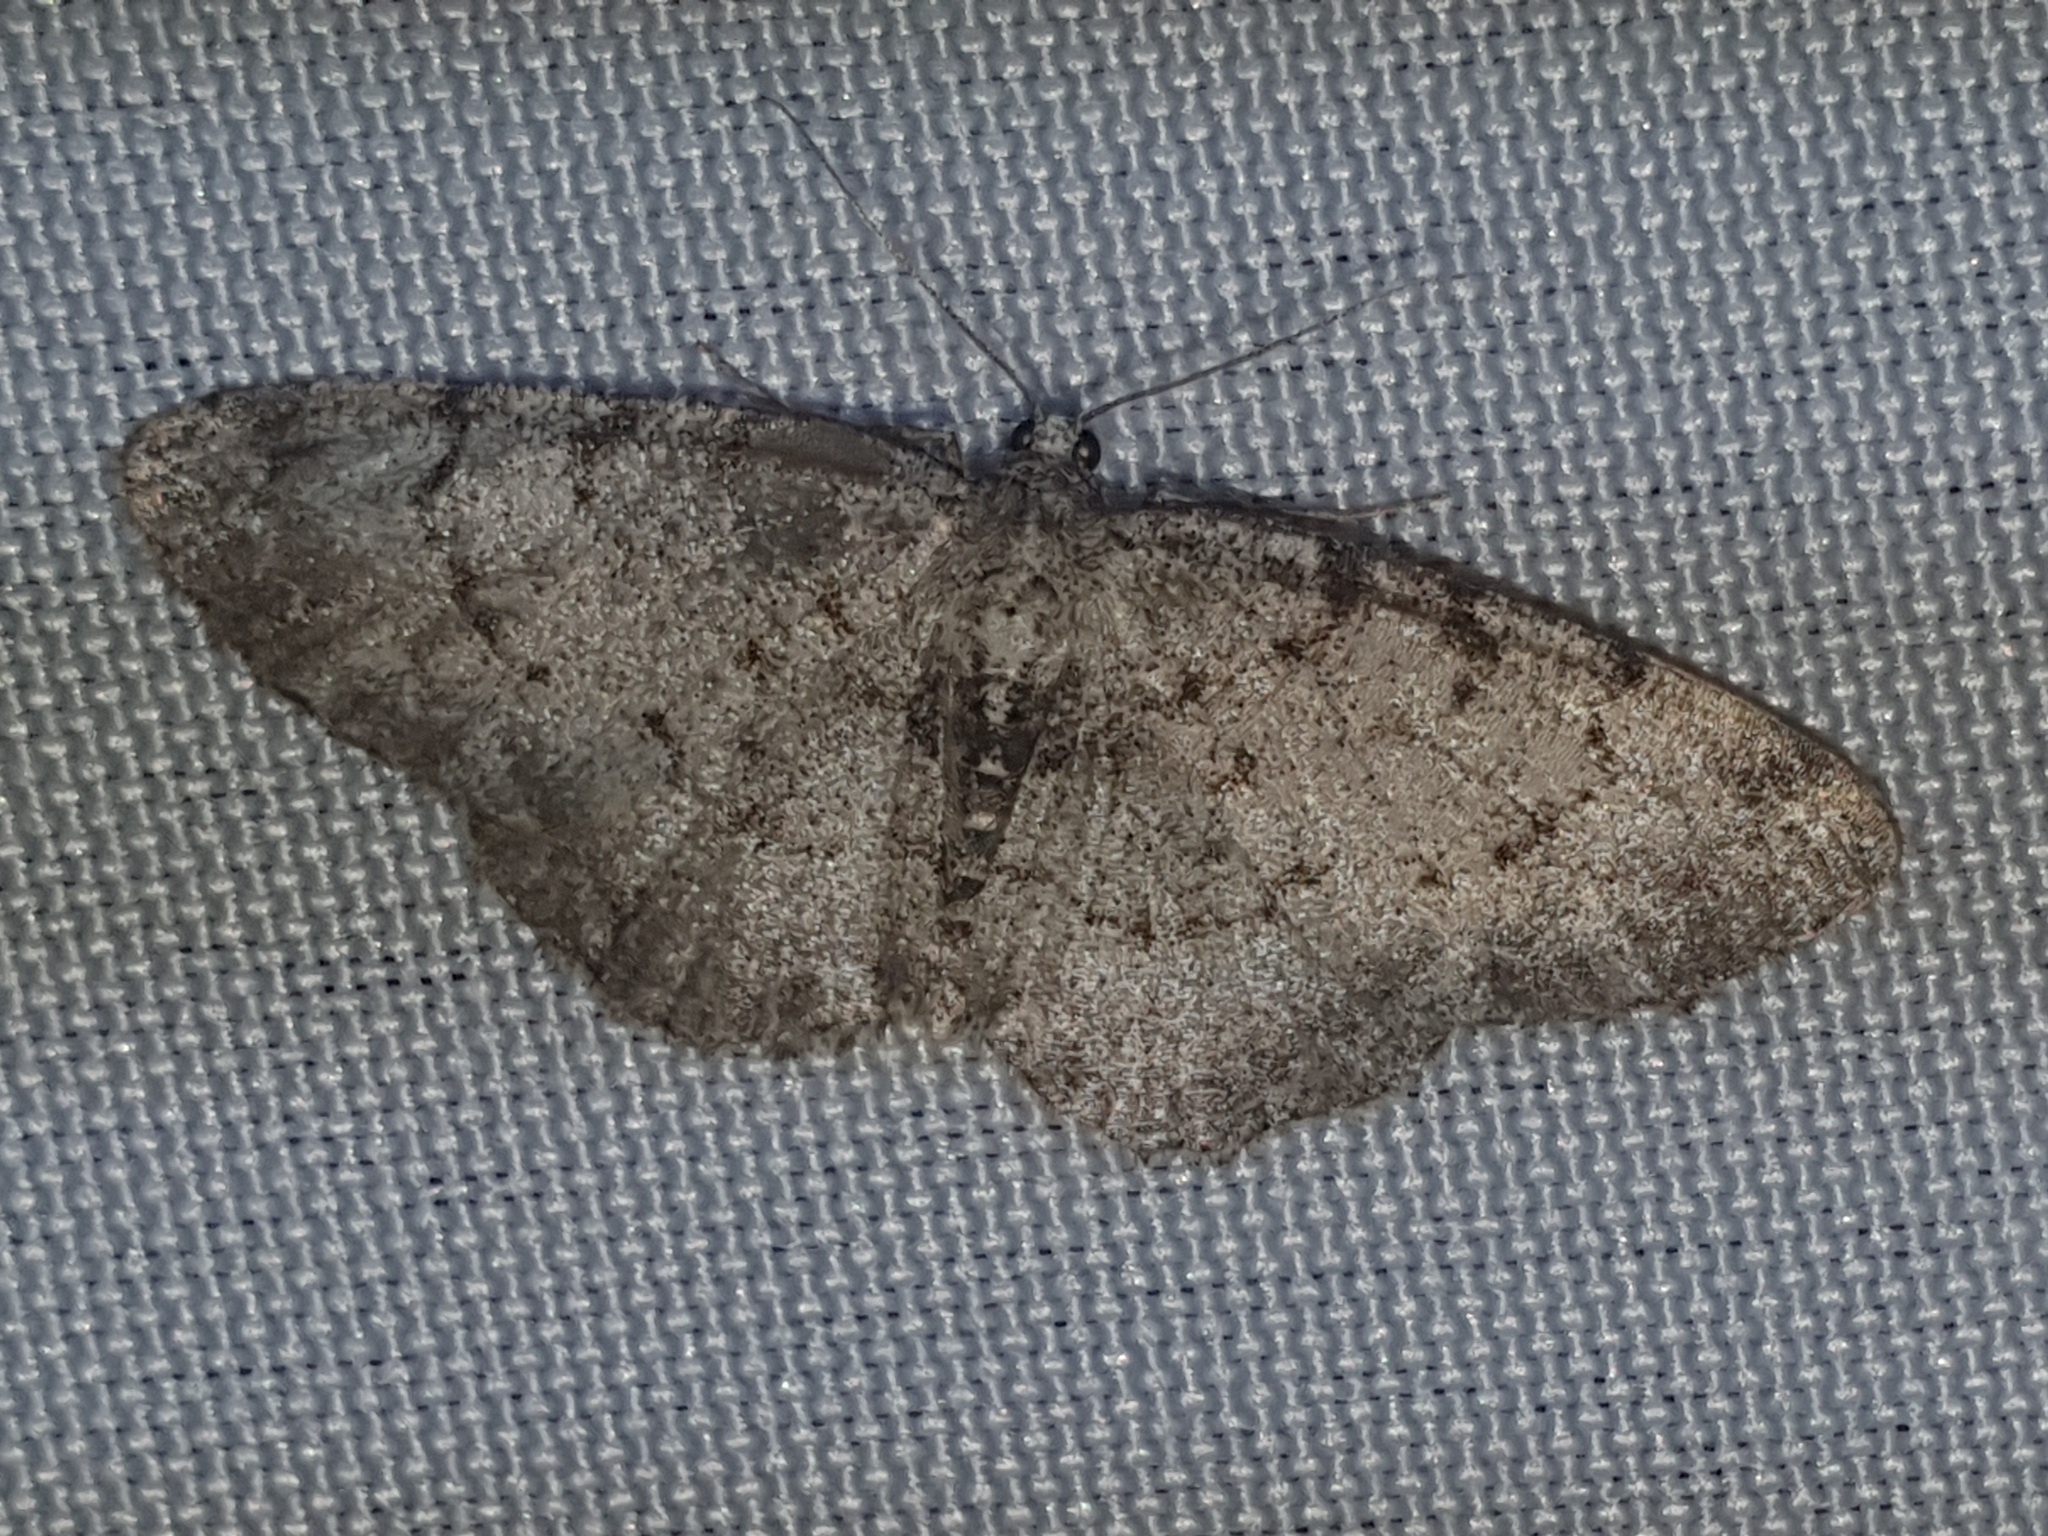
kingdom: Animalia
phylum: Arthropoda
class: Insecta
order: Lepidoptera
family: Geometridae
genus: Aethalura
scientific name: Aethalura punctulata
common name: Grey birch
